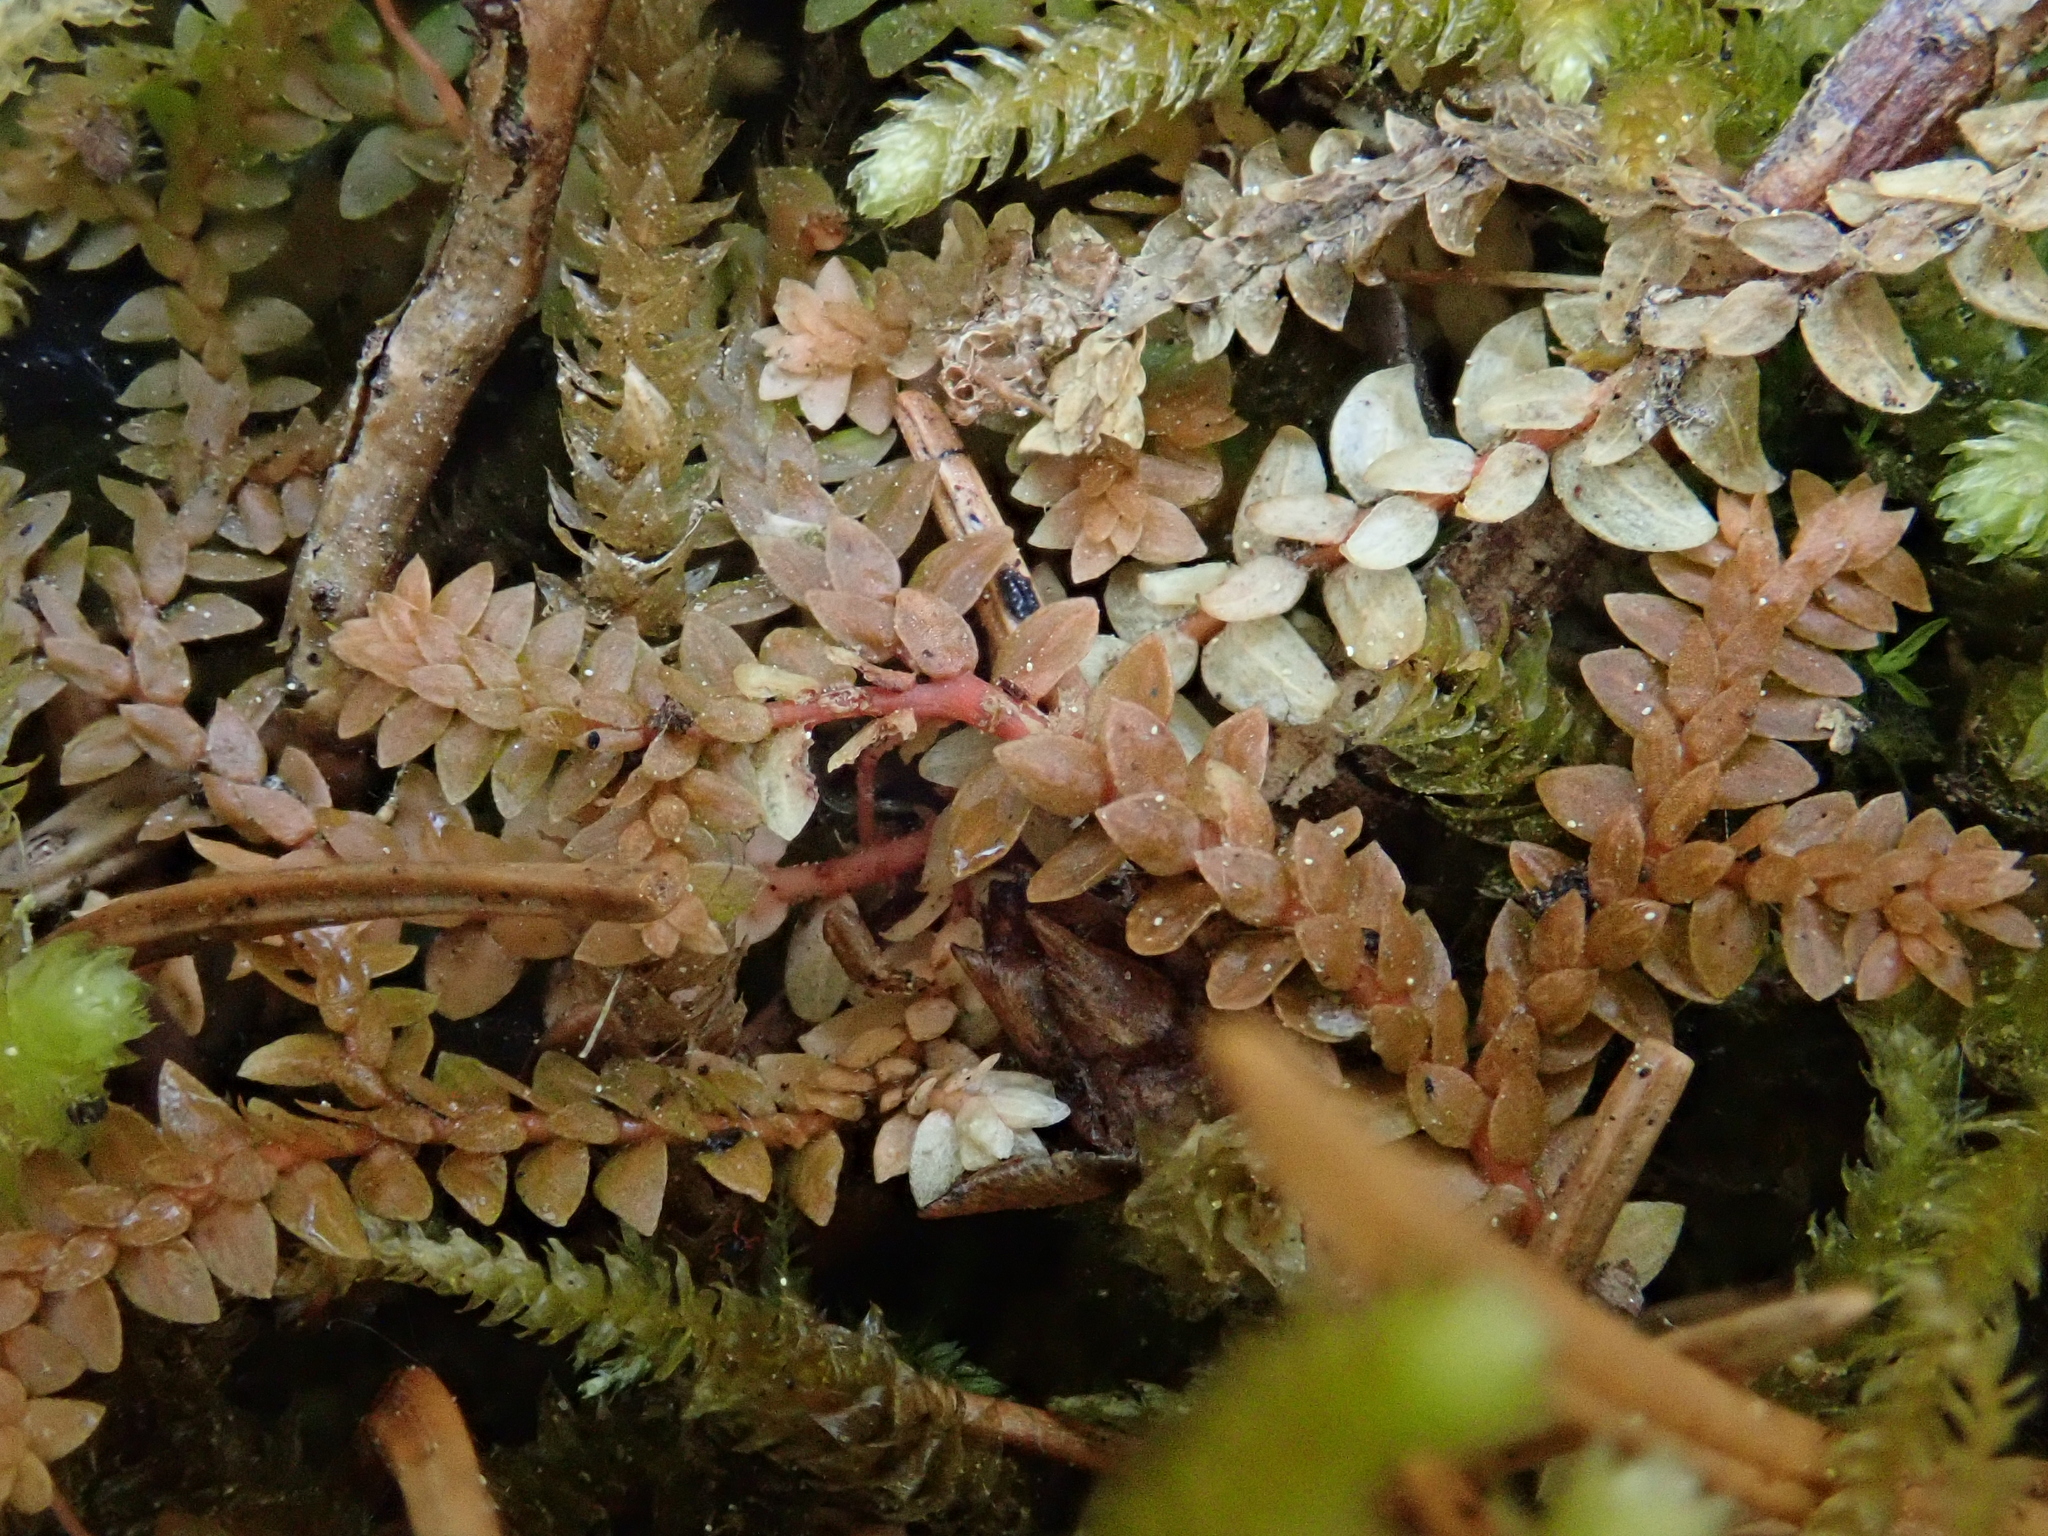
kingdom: Plantae
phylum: Tracheophyta
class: Lycopodiopsida
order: Selaginellales
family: Selaginellaceae
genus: Selaginella
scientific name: Selaginella helvetica
